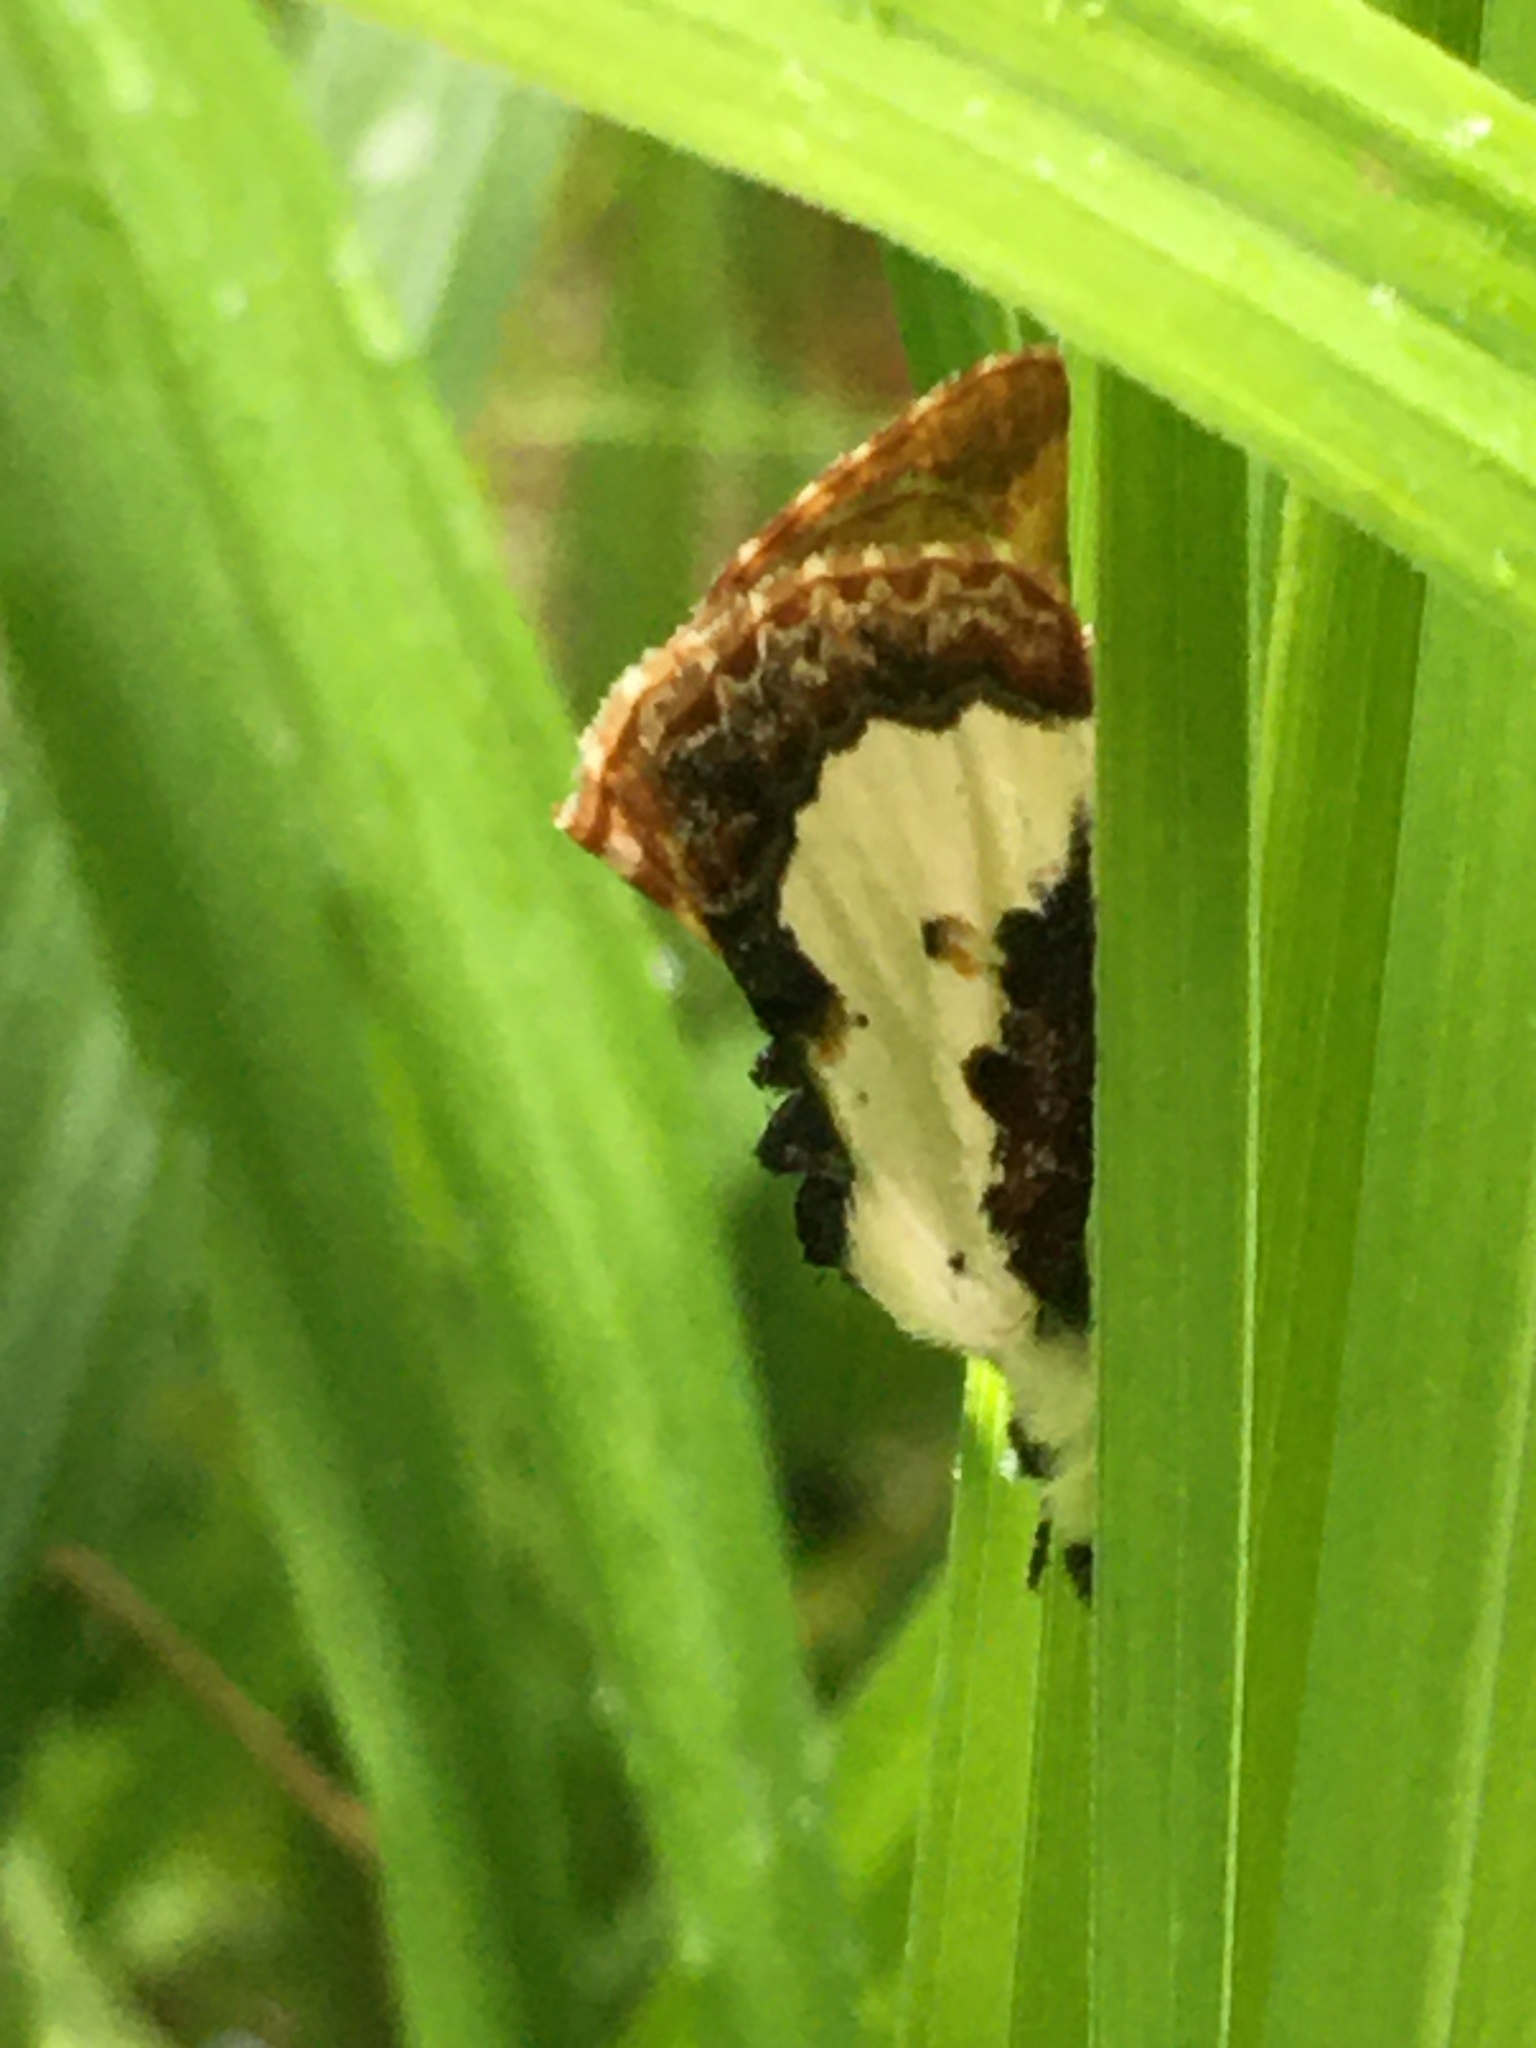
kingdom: Animalia
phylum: Arthropoda
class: Insecta
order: Lepidoptera
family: Noctuidae
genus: Eudryas
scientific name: Eudryas unio
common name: Pearly wood-nymph
